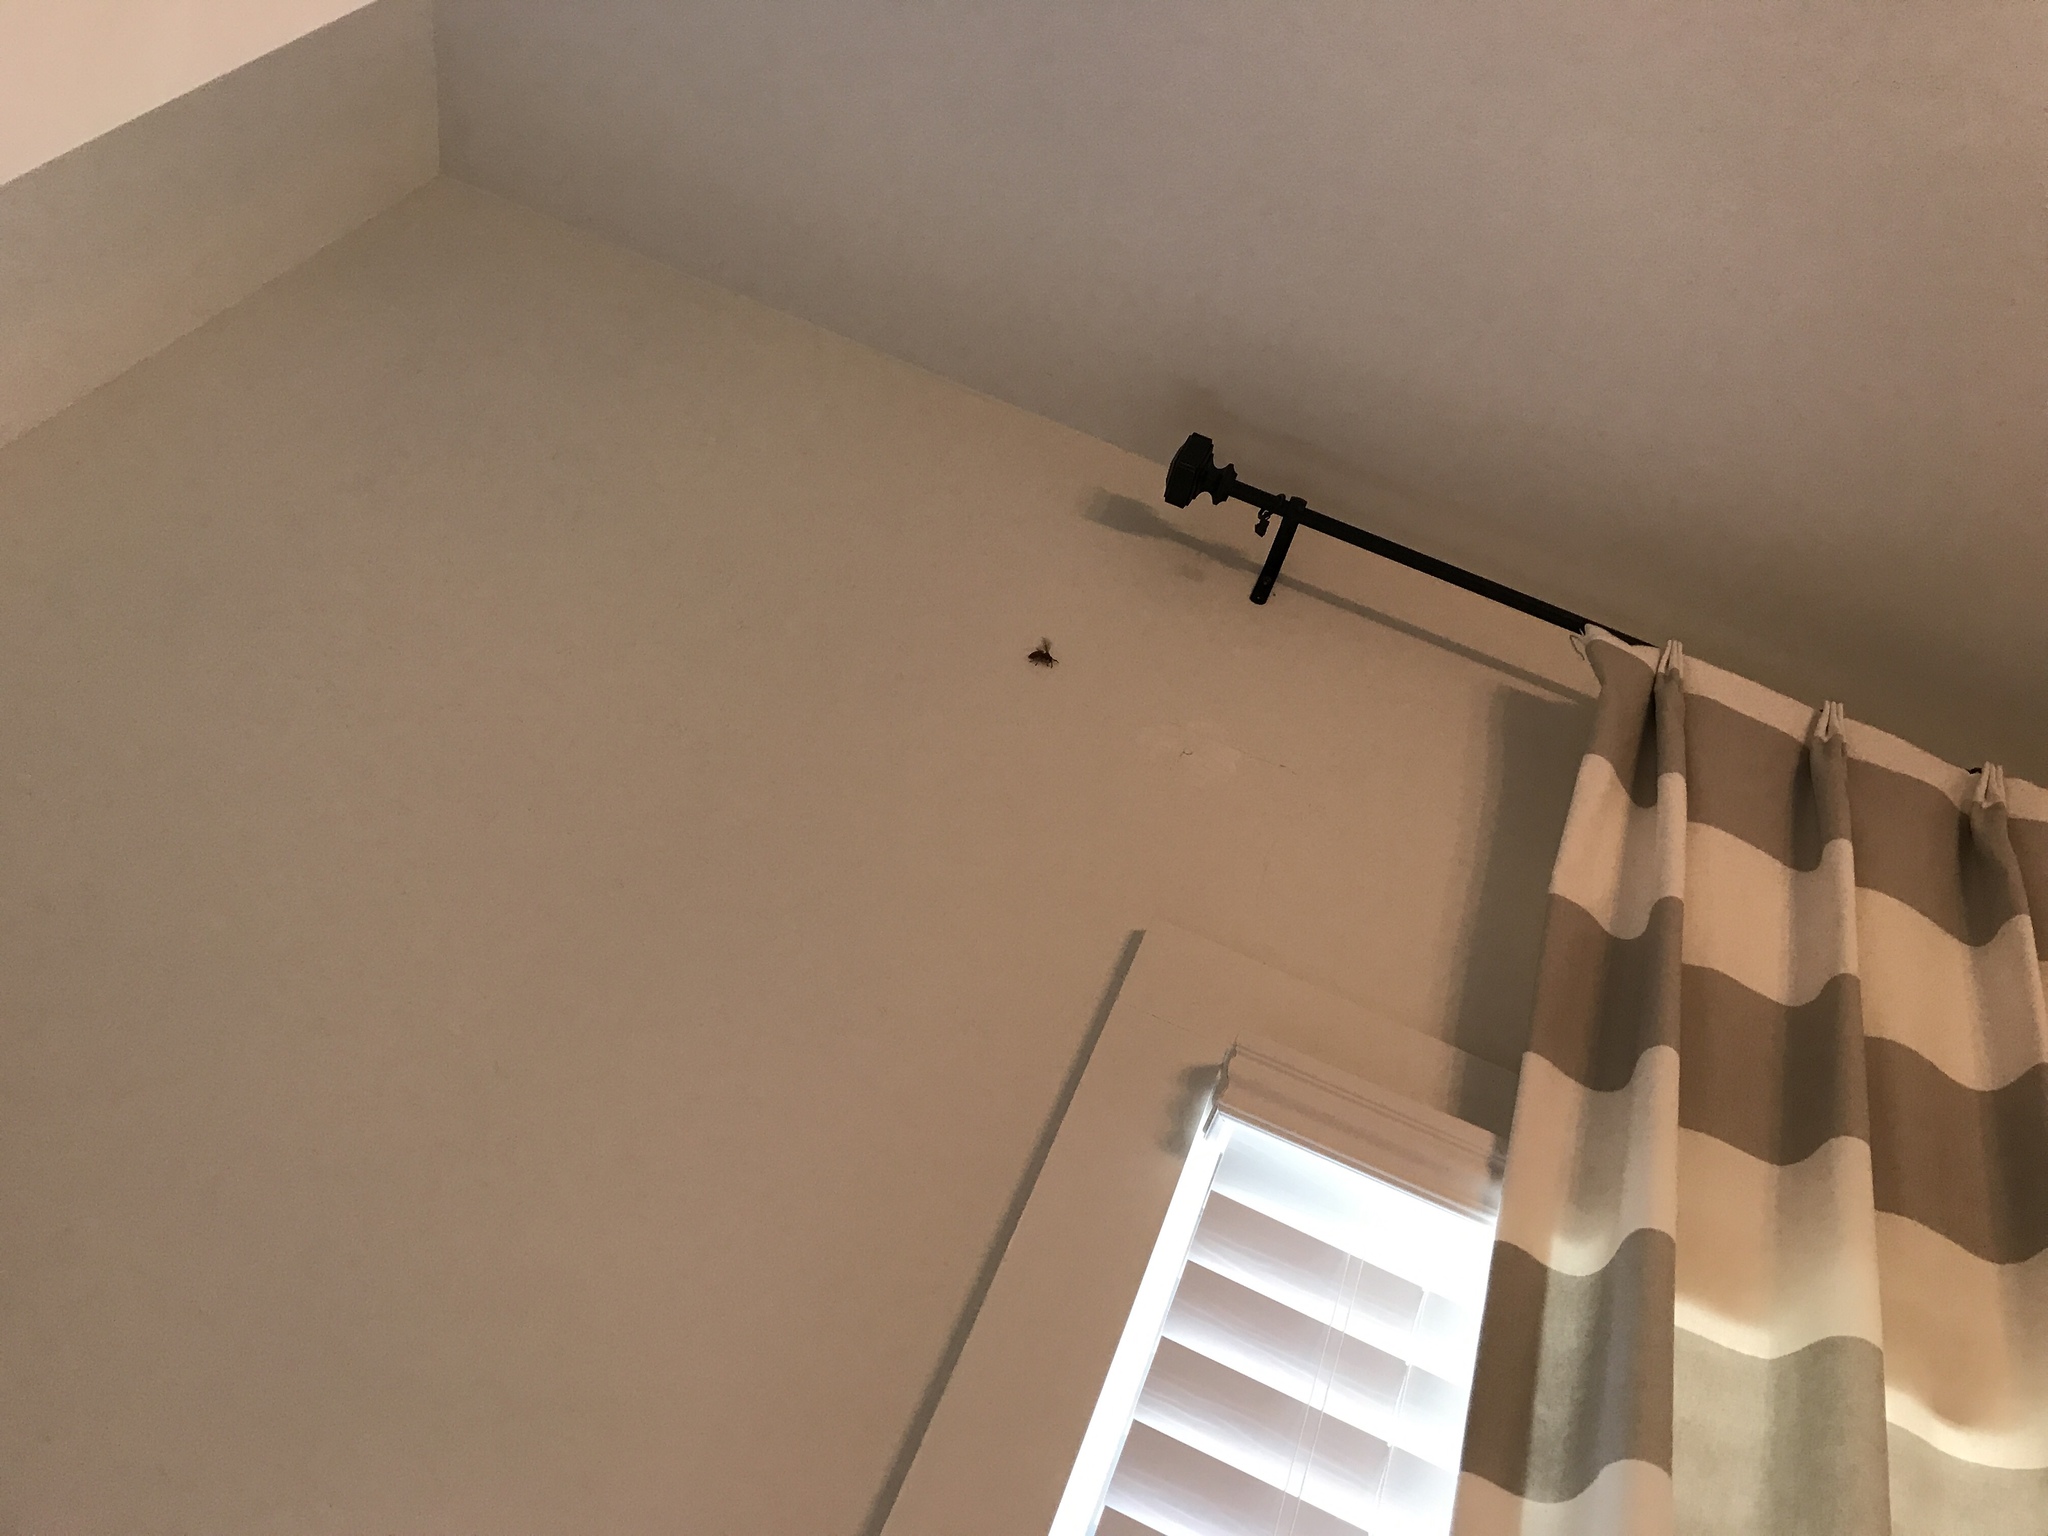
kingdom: Animalia
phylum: Arthropoda
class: Insecta
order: Hymenoptera
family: Vespidae
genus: Vespula
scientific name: Vespula squamosa
